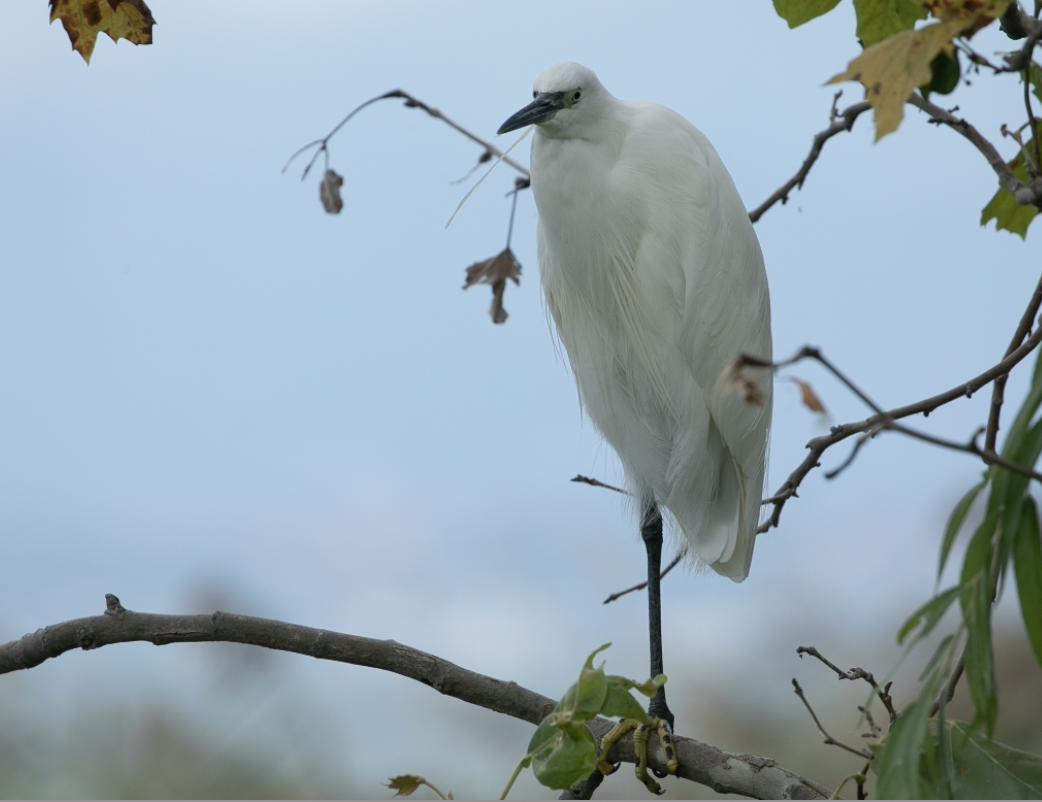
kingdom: Animalia
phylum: Chordata
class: Aves
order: Pelecaniformes
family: Ardeidae
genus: Egretta
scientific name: Egretta garzetta
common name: Little egret
